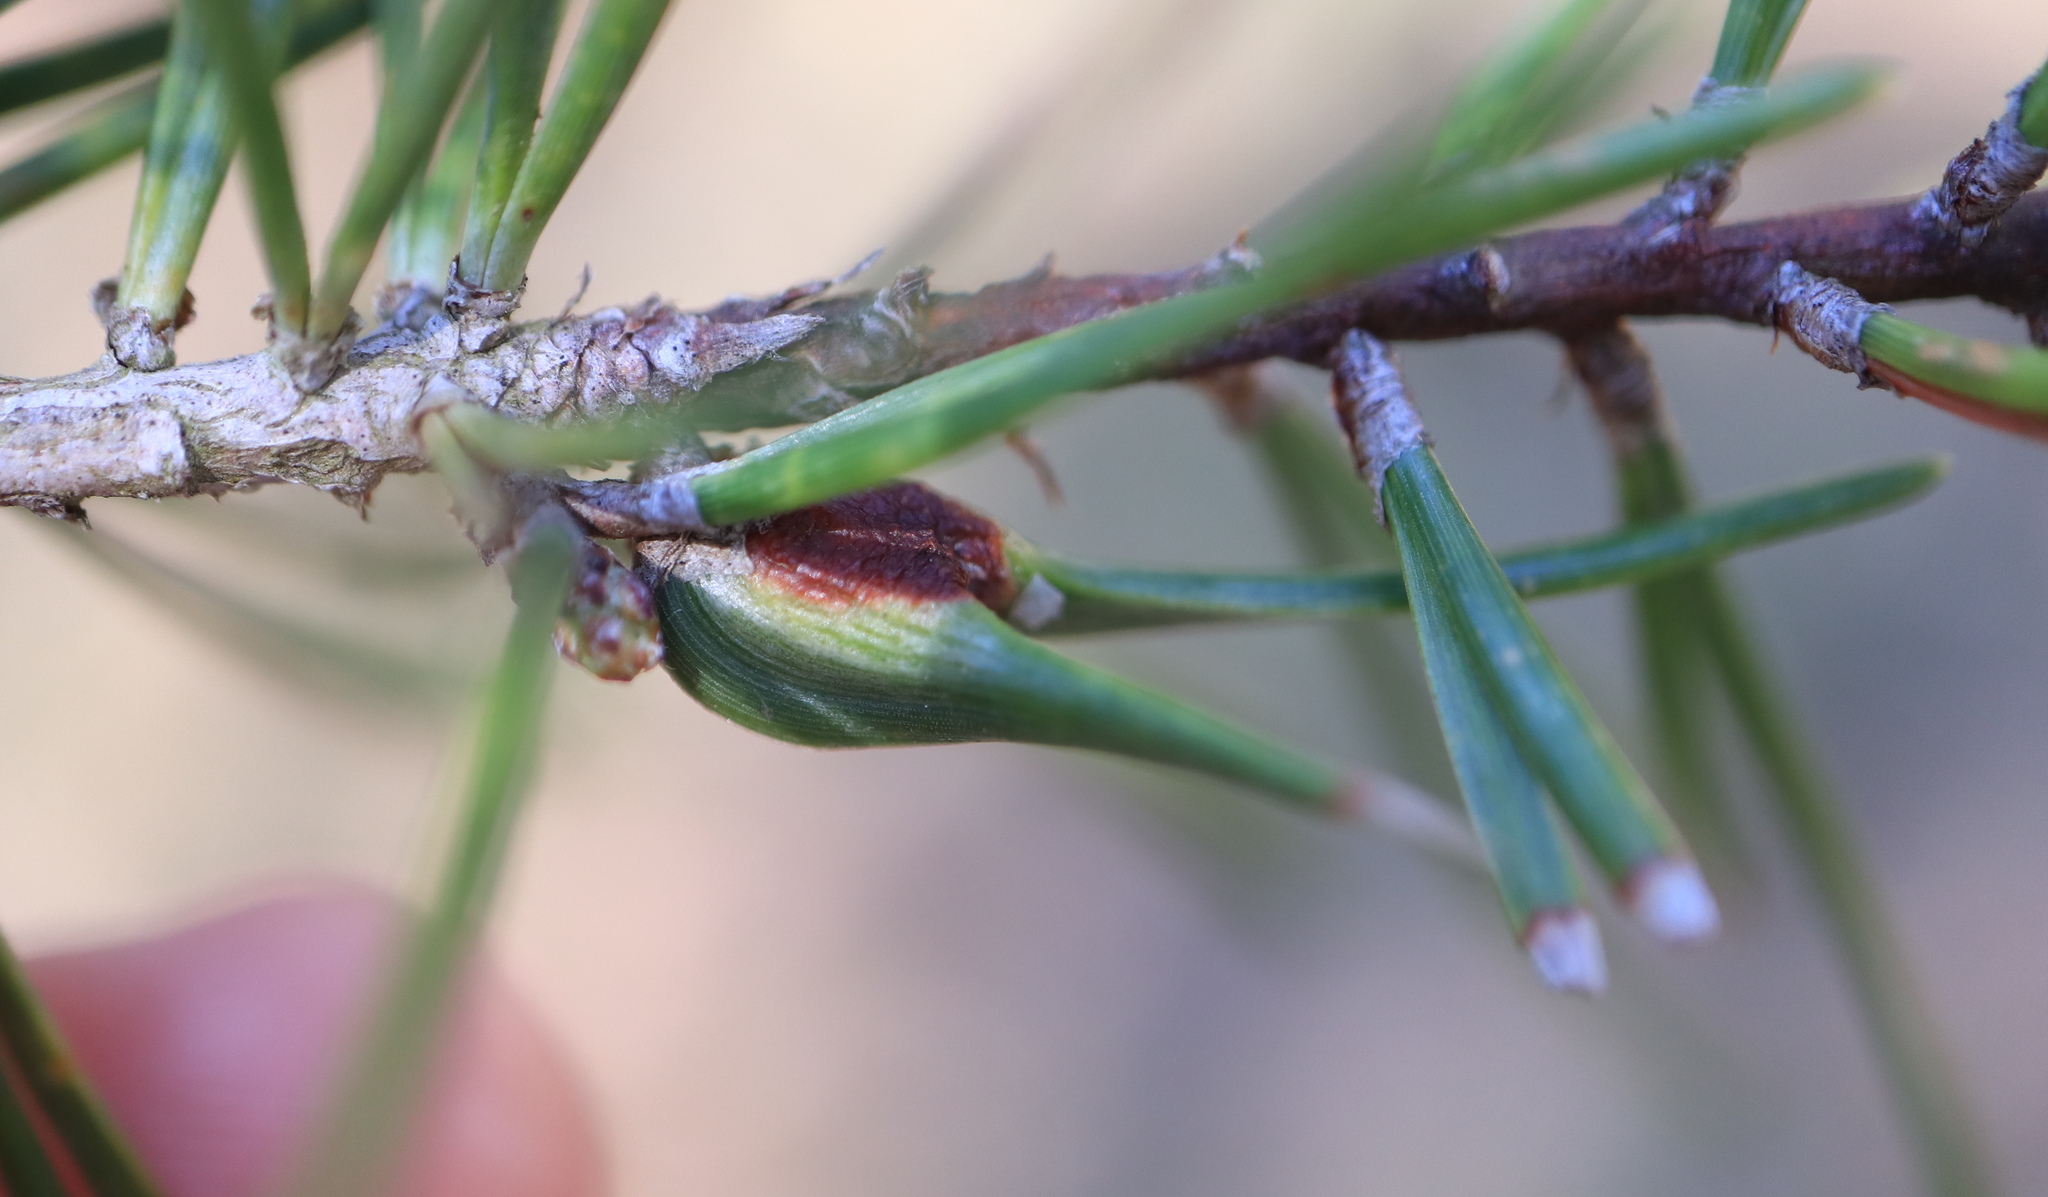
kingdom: Animalia
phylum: Arthropoda
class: Insecta
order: Diptera
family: Cecidomyiidae
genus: Thecodiplosis
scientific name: Thecodiplosis brachynteroides
